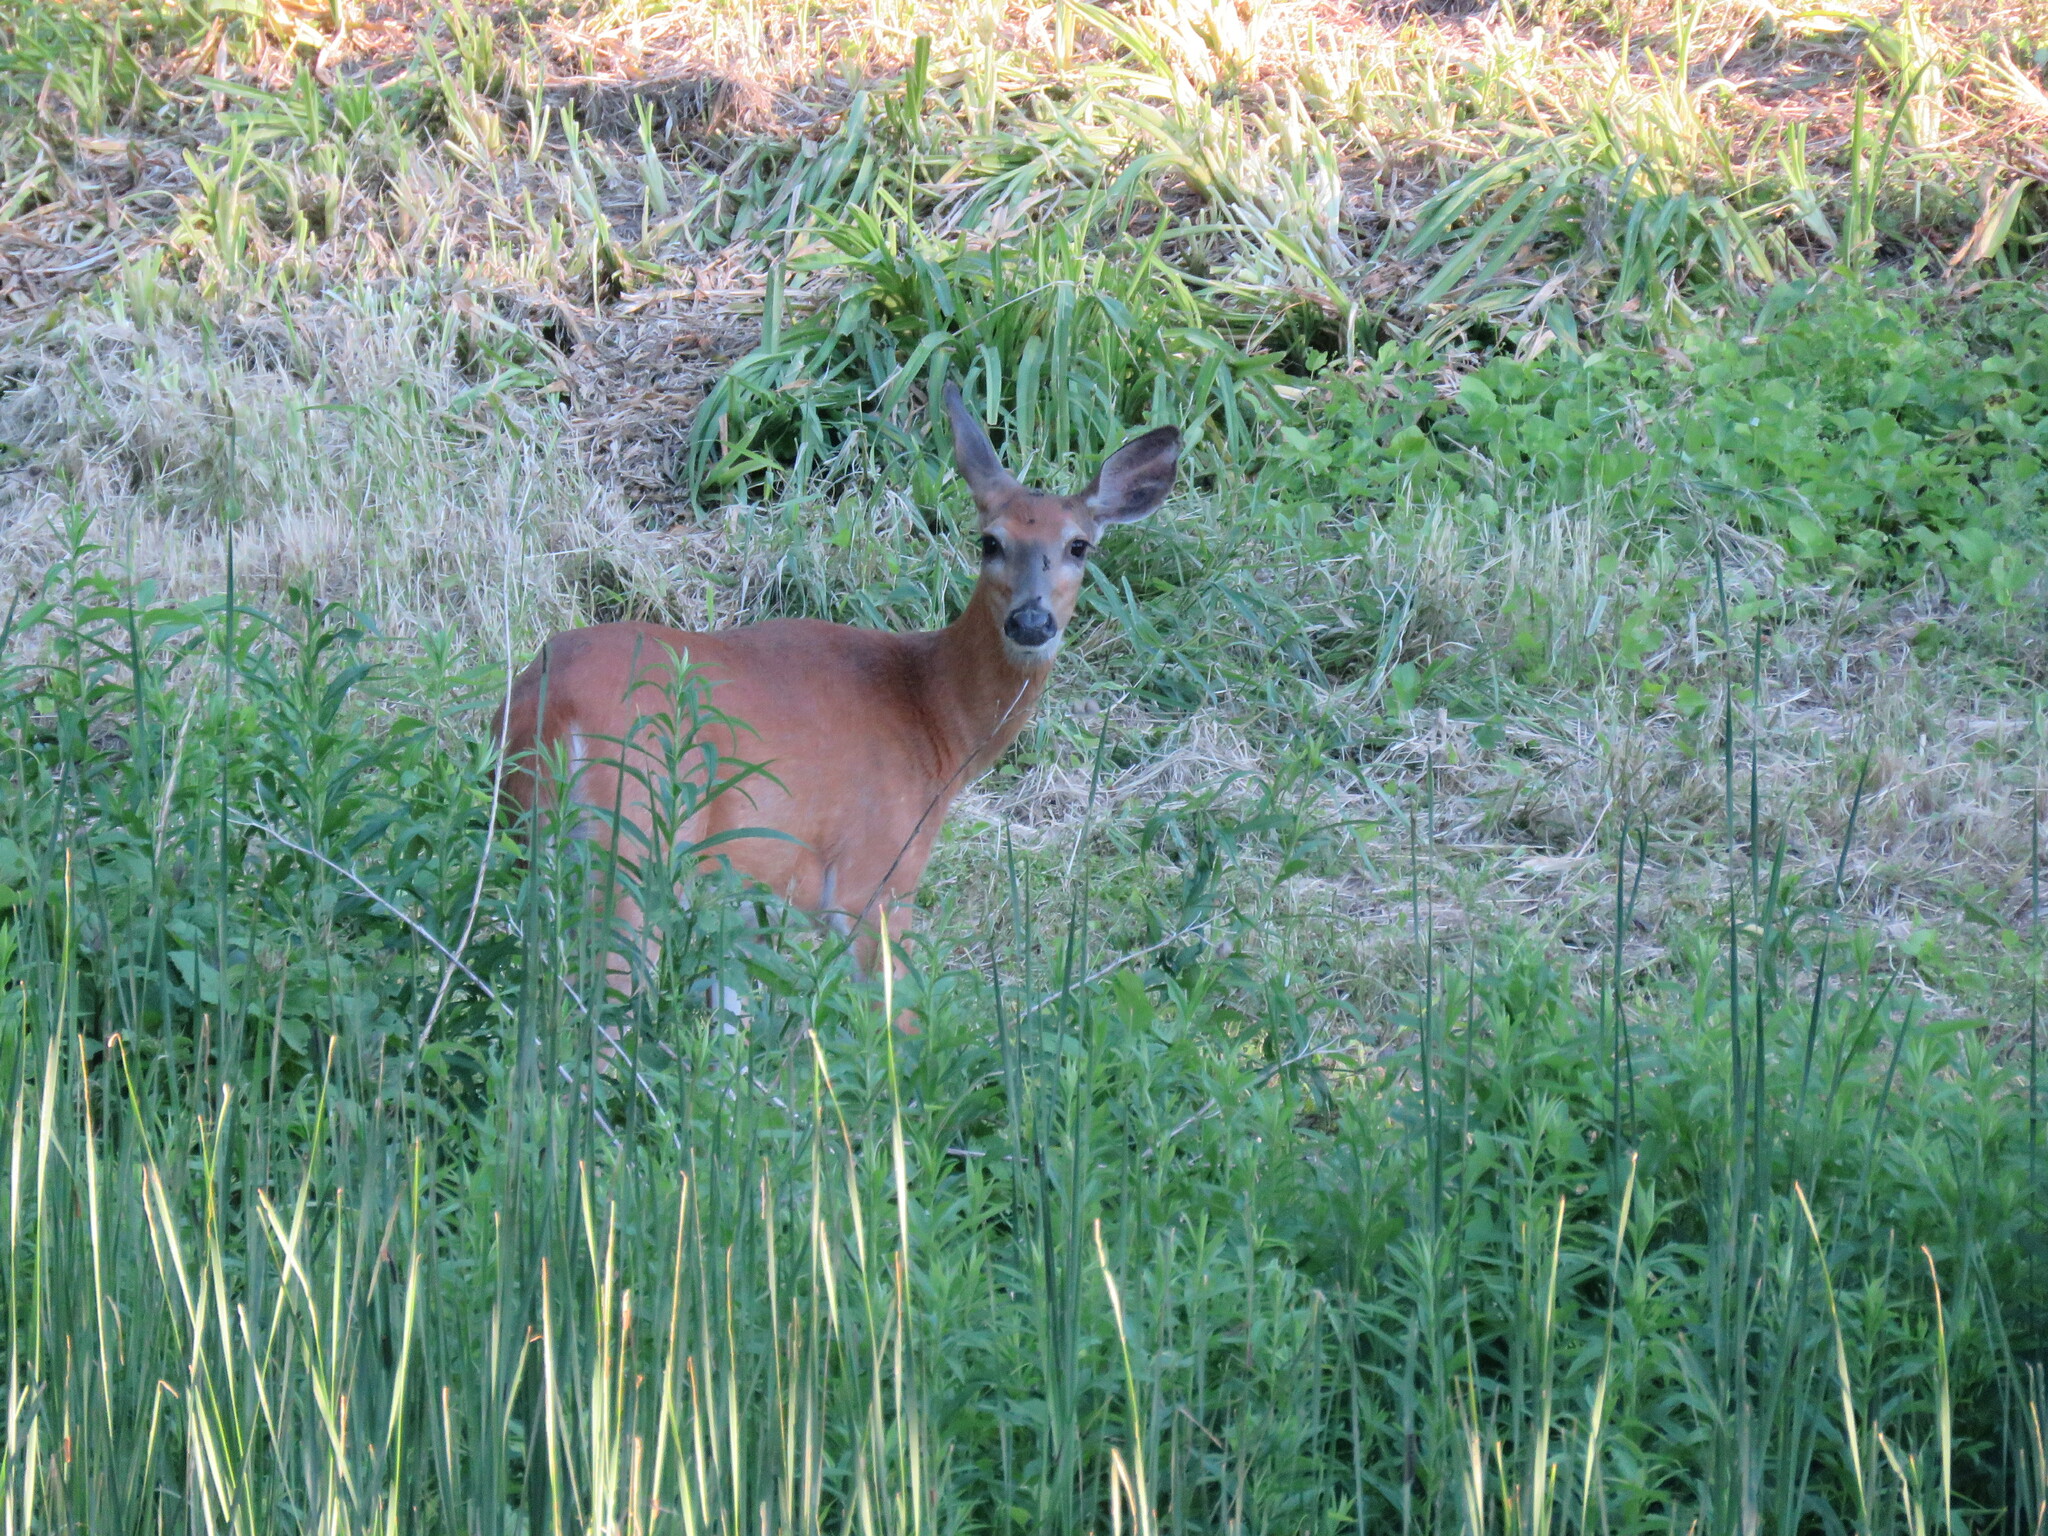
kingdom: Animalia
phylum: Chordata
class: Mammalia
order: Artiodactyla
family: Cervidae
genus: Odocoileus
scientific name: Odocoileus virginianus
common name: White-tailed deer
